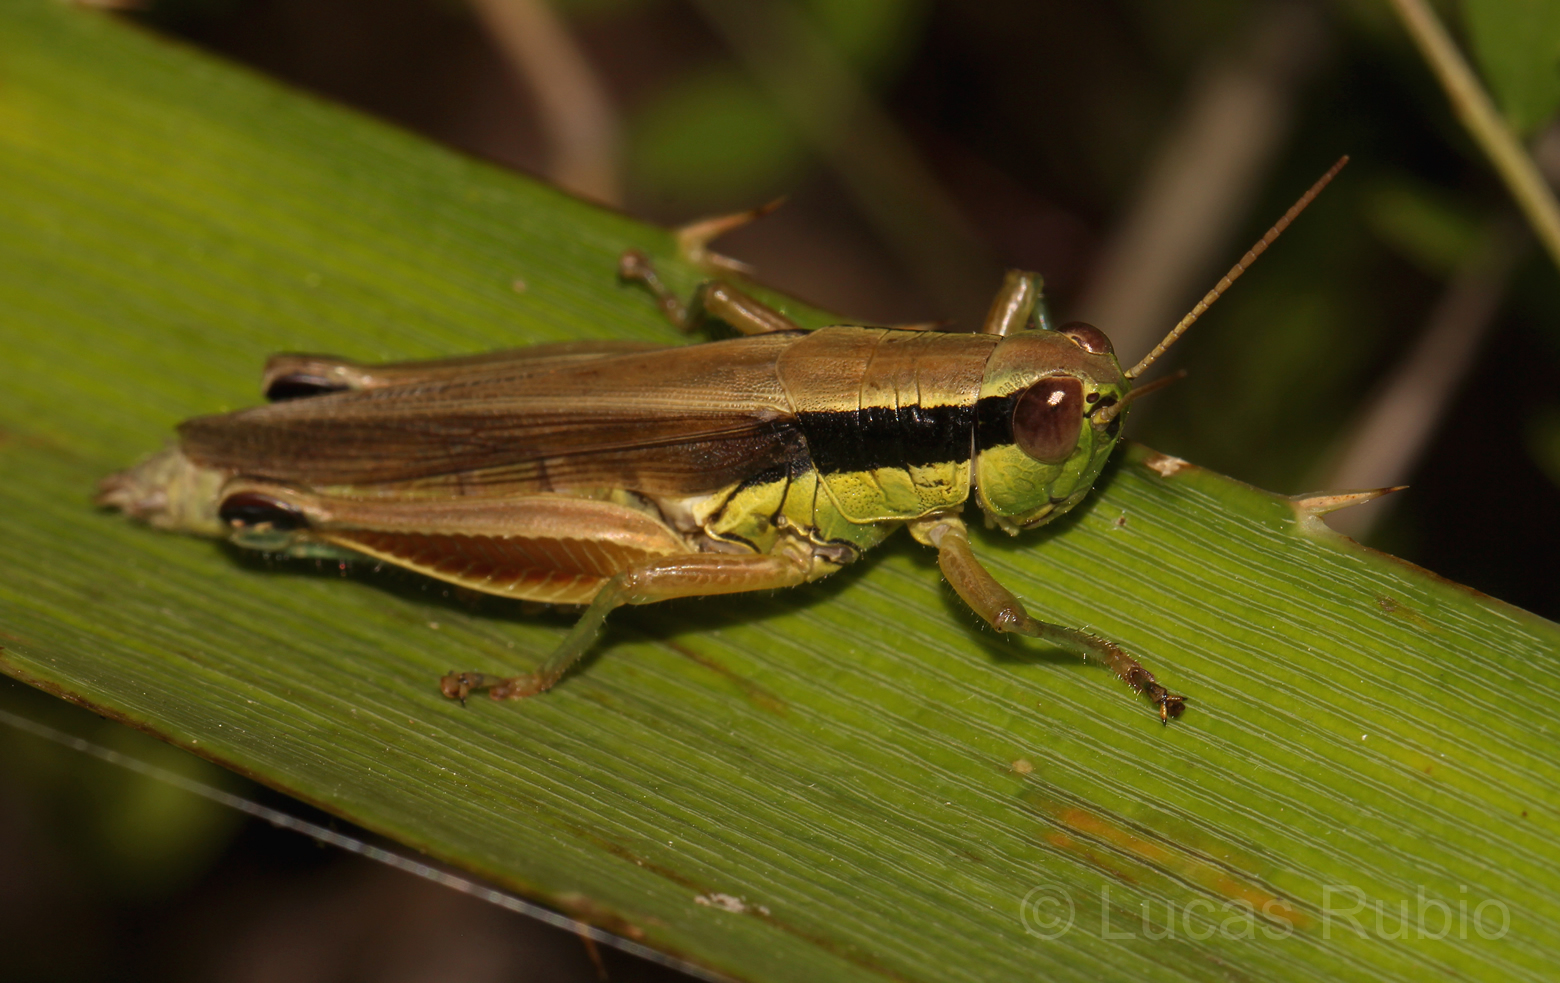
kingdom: Animalia
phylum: Arthropoda
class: Insecta
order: Orthoptera
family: Acrididae
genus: Scotussa
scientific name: Scotussa impudica
